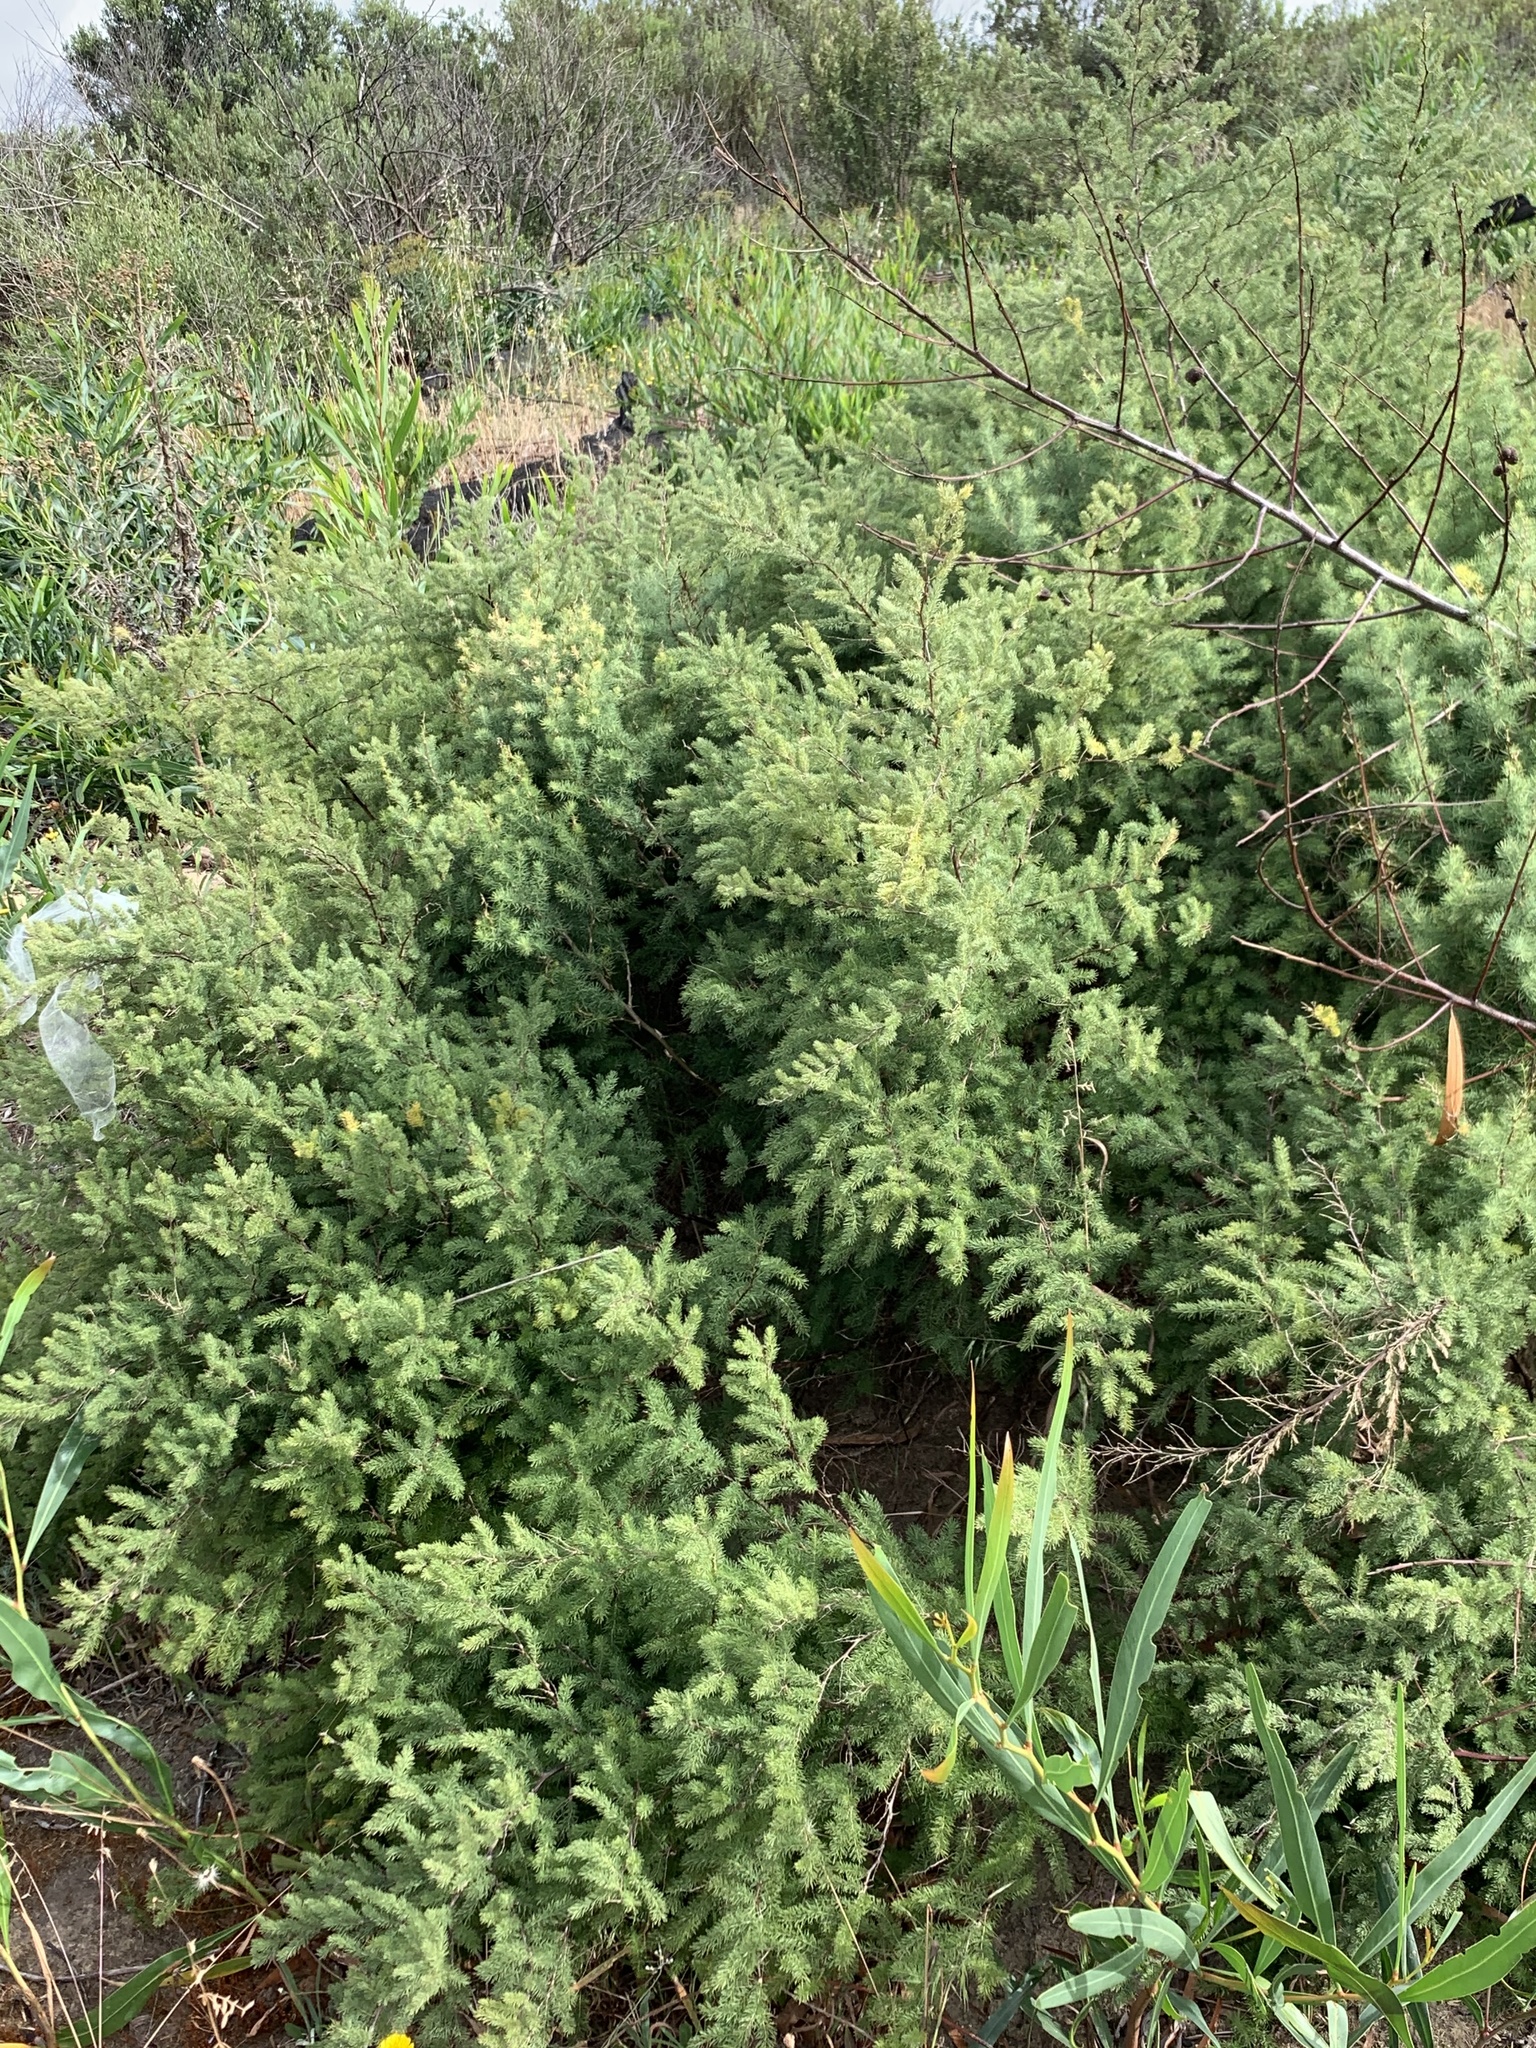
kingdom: Plantae
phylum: Tracheophyta
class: Liliopsida
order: Asparagales
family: Asparagaceae
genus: Asparagus
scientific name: Asparagus rubicundus
